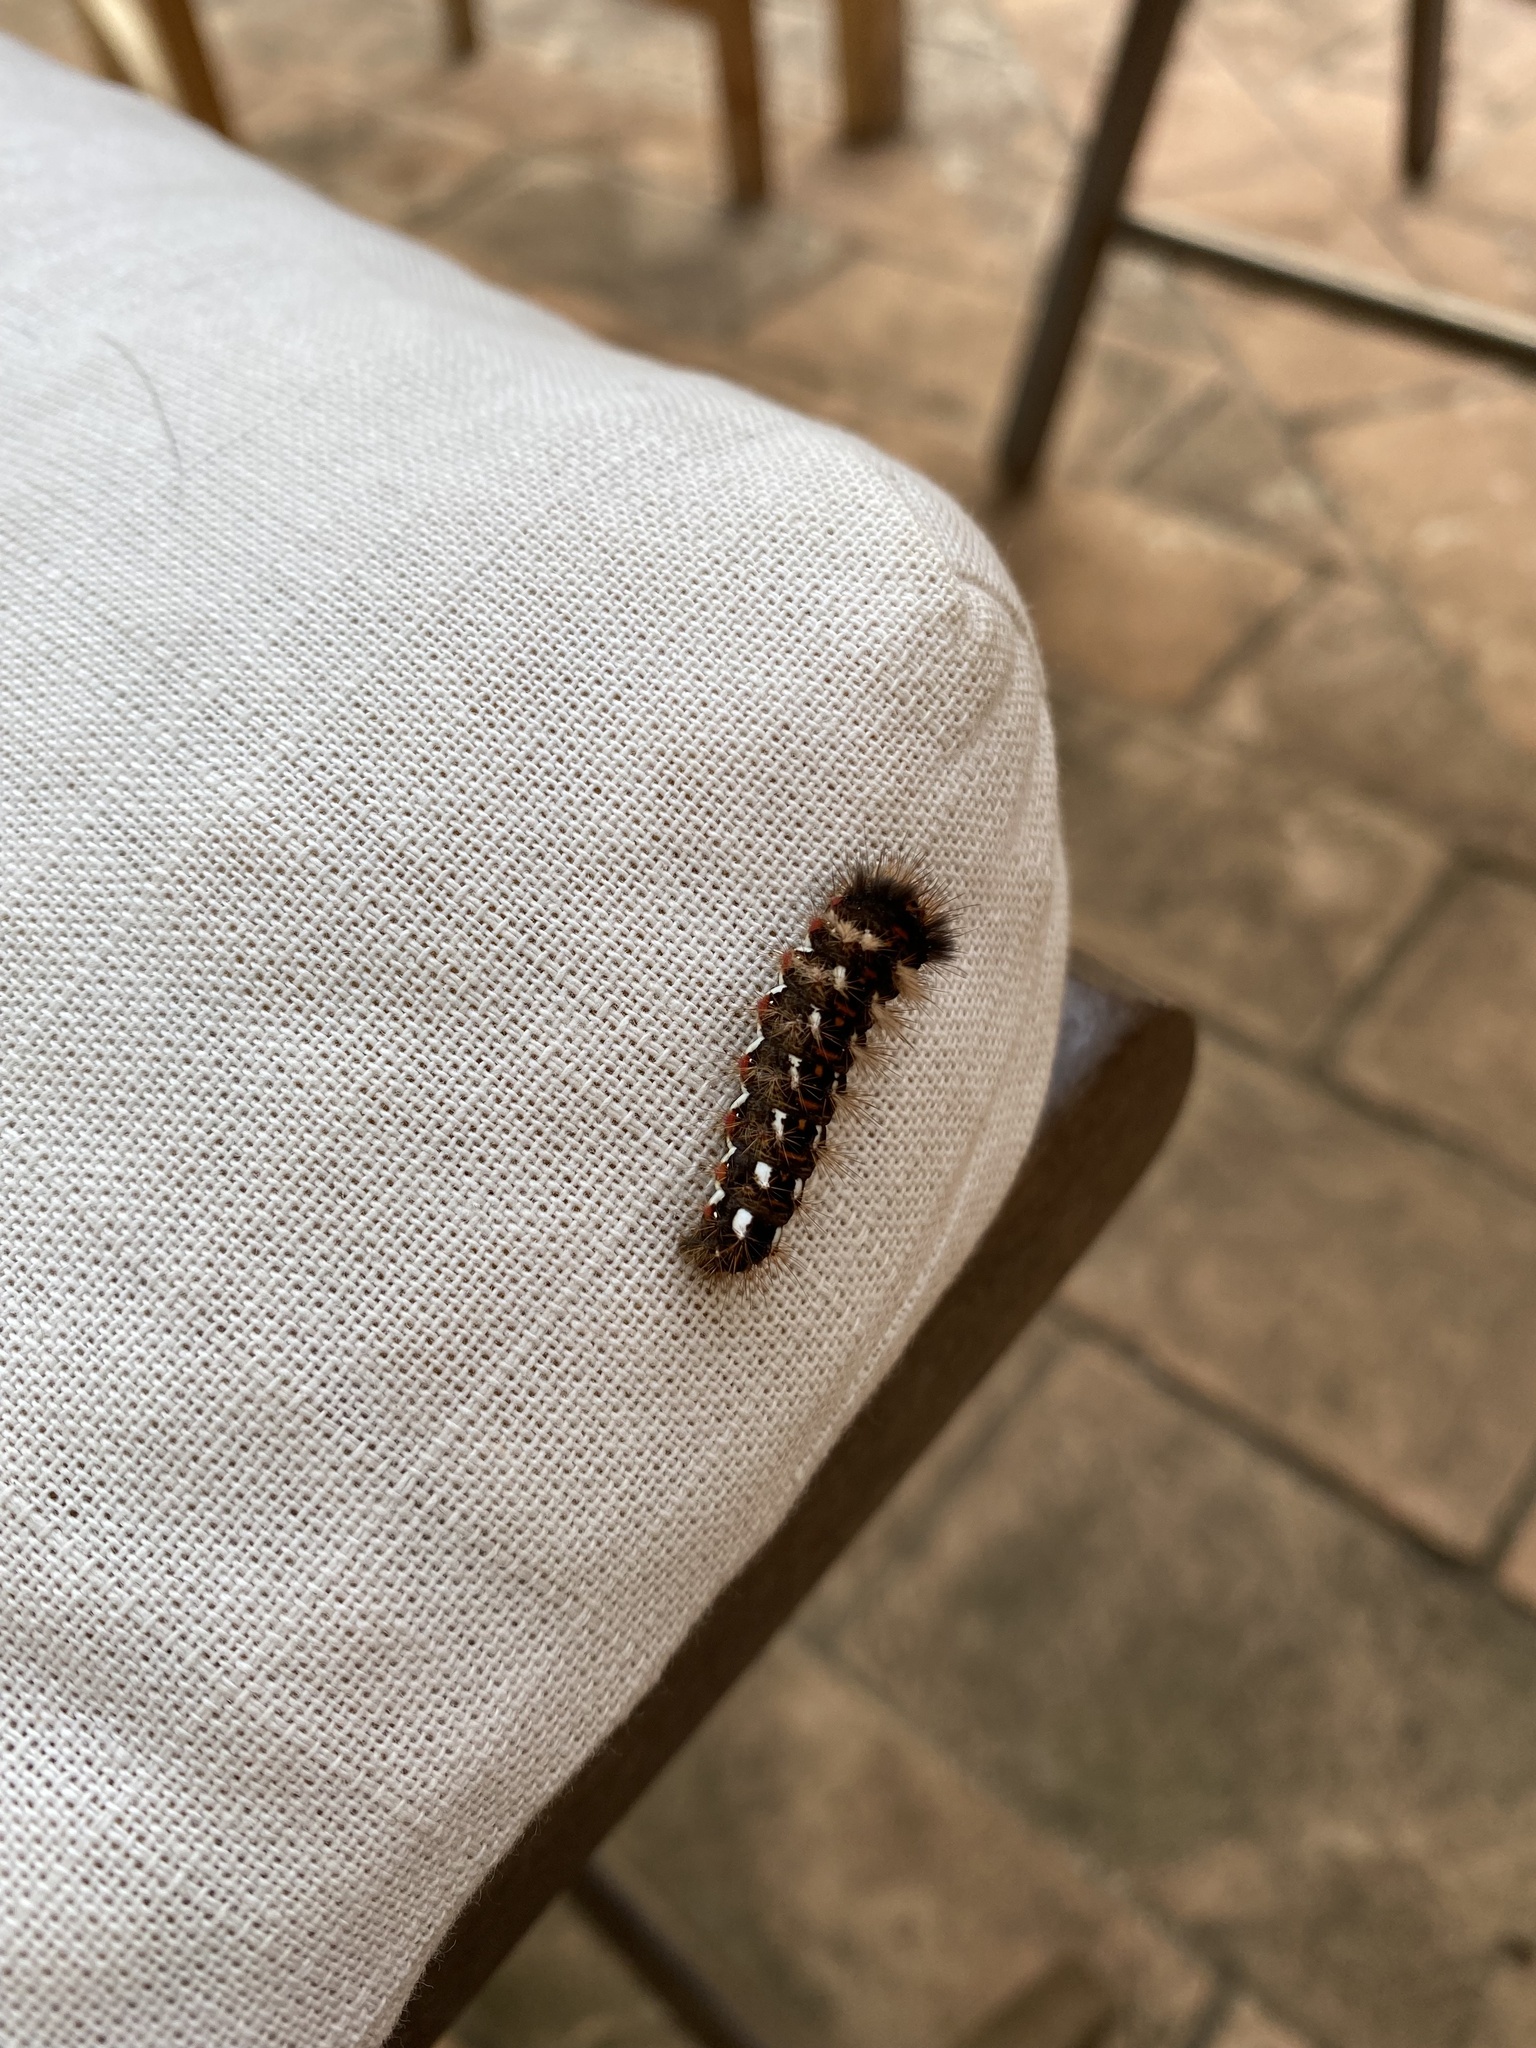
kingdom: Animalia
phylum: Arthropoda
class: Insecta
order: Lepidoptera
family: Noctuidae
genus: Acronicta
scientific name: Acronicta rumicis
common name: Knot grass
